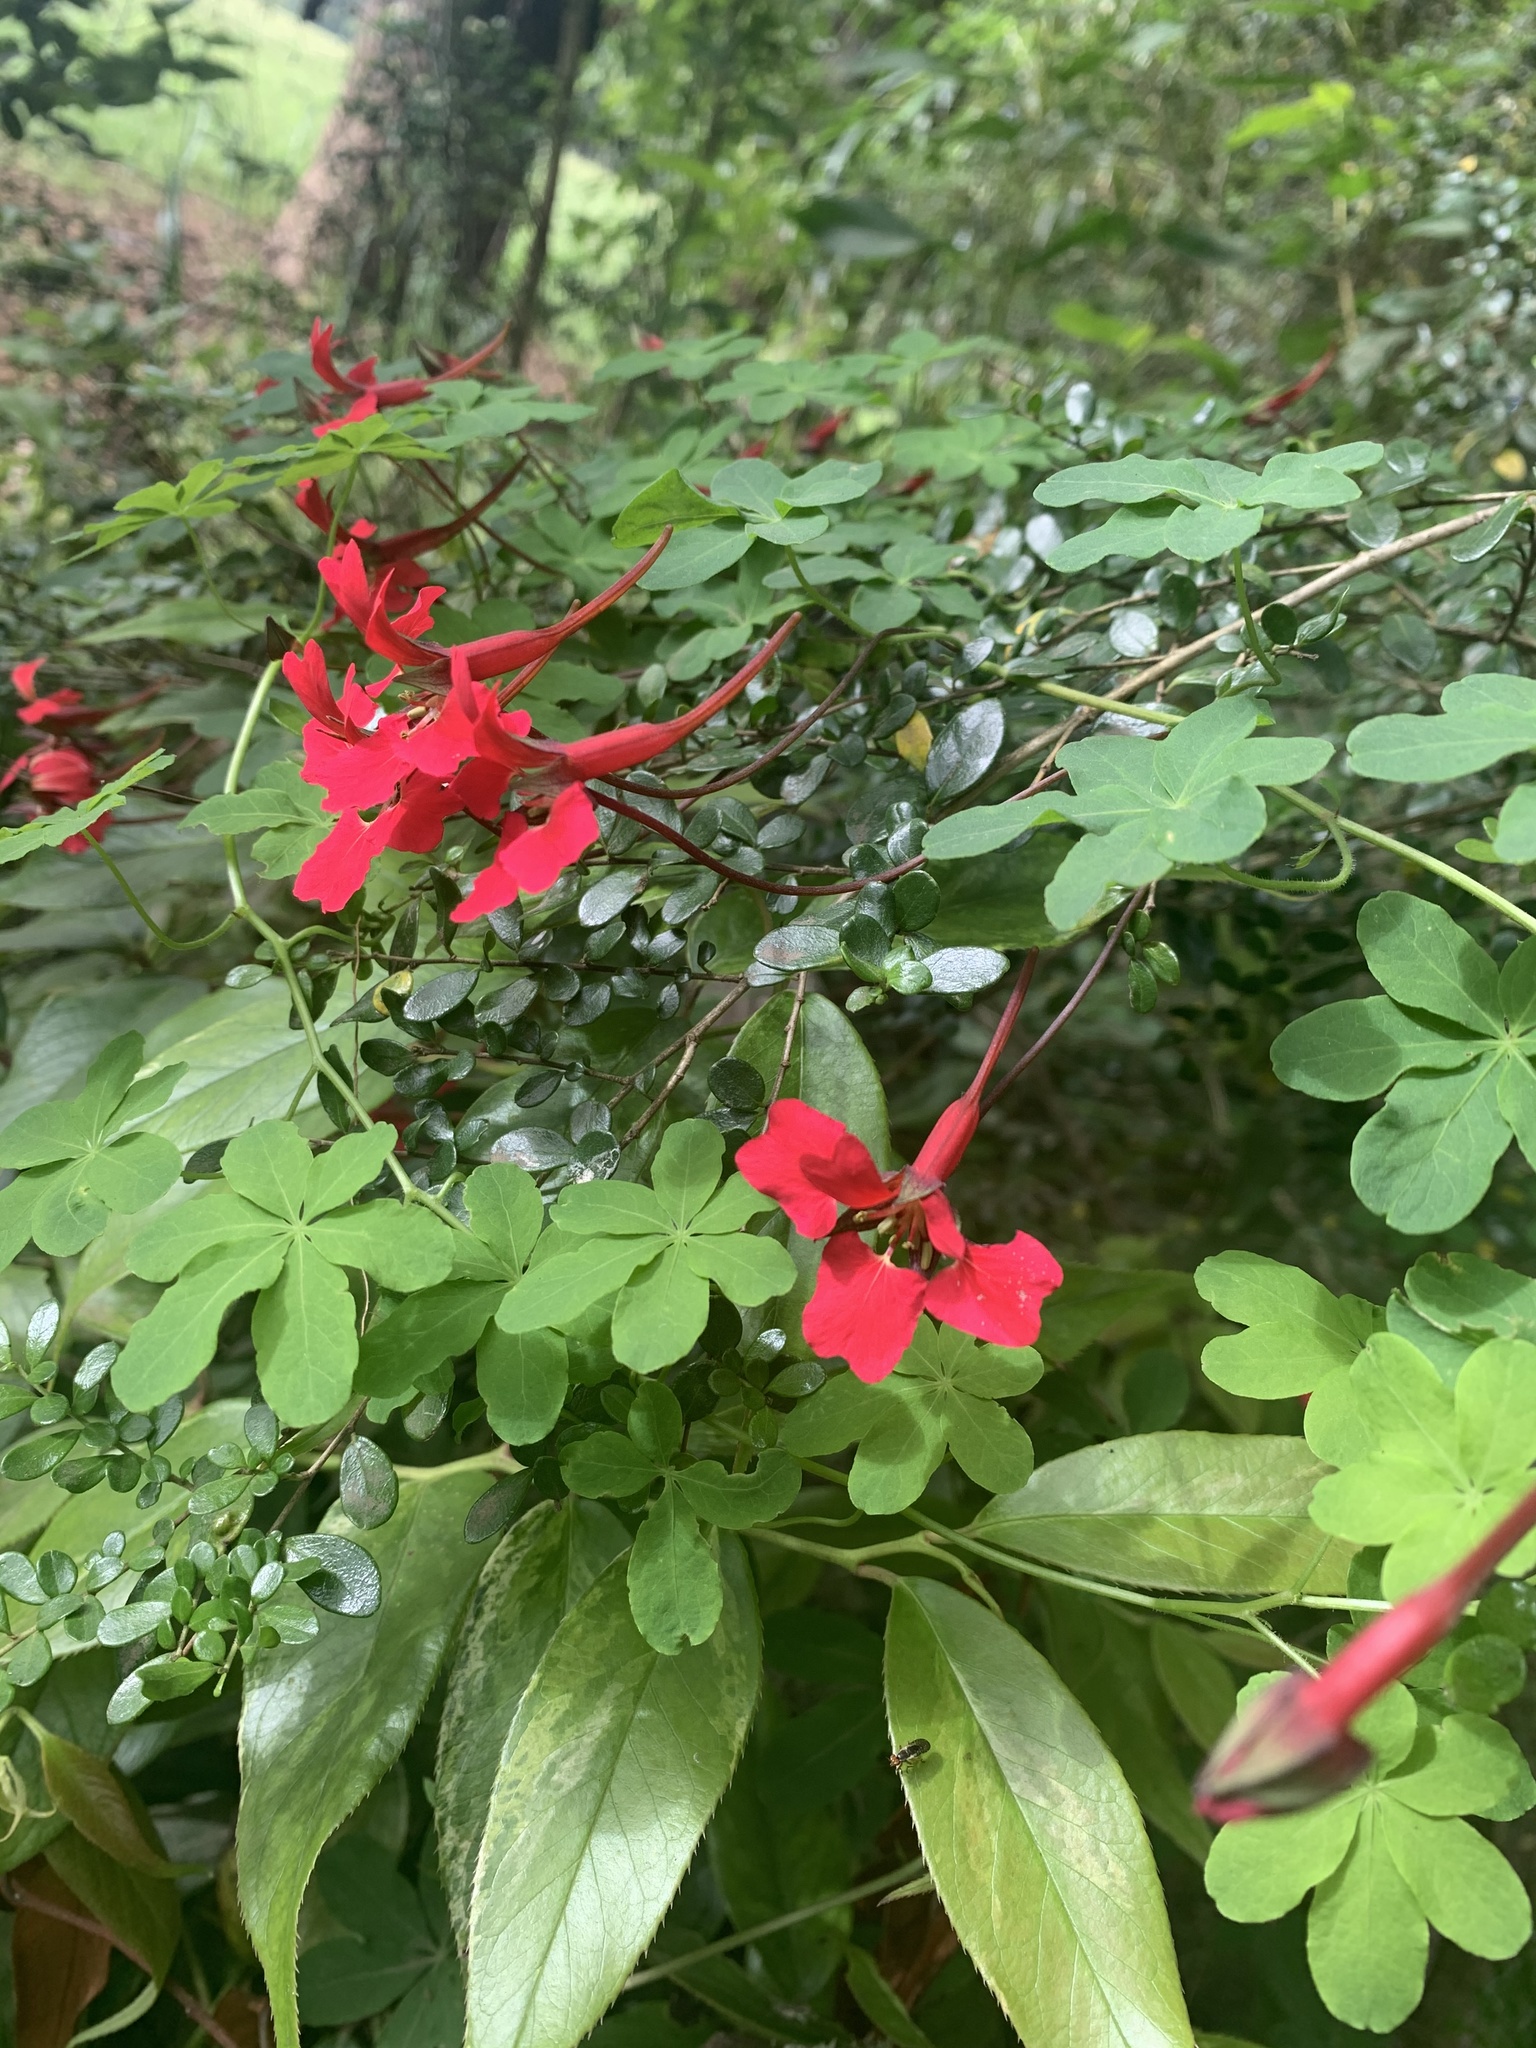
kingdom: Plantae
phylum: Tracheophyta
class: Magnoliopsida
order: Brassicales
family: Tropaeolaceae
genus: Tropaeolum
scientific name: Tropaeolum speciosum
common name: Flame nasturtium
